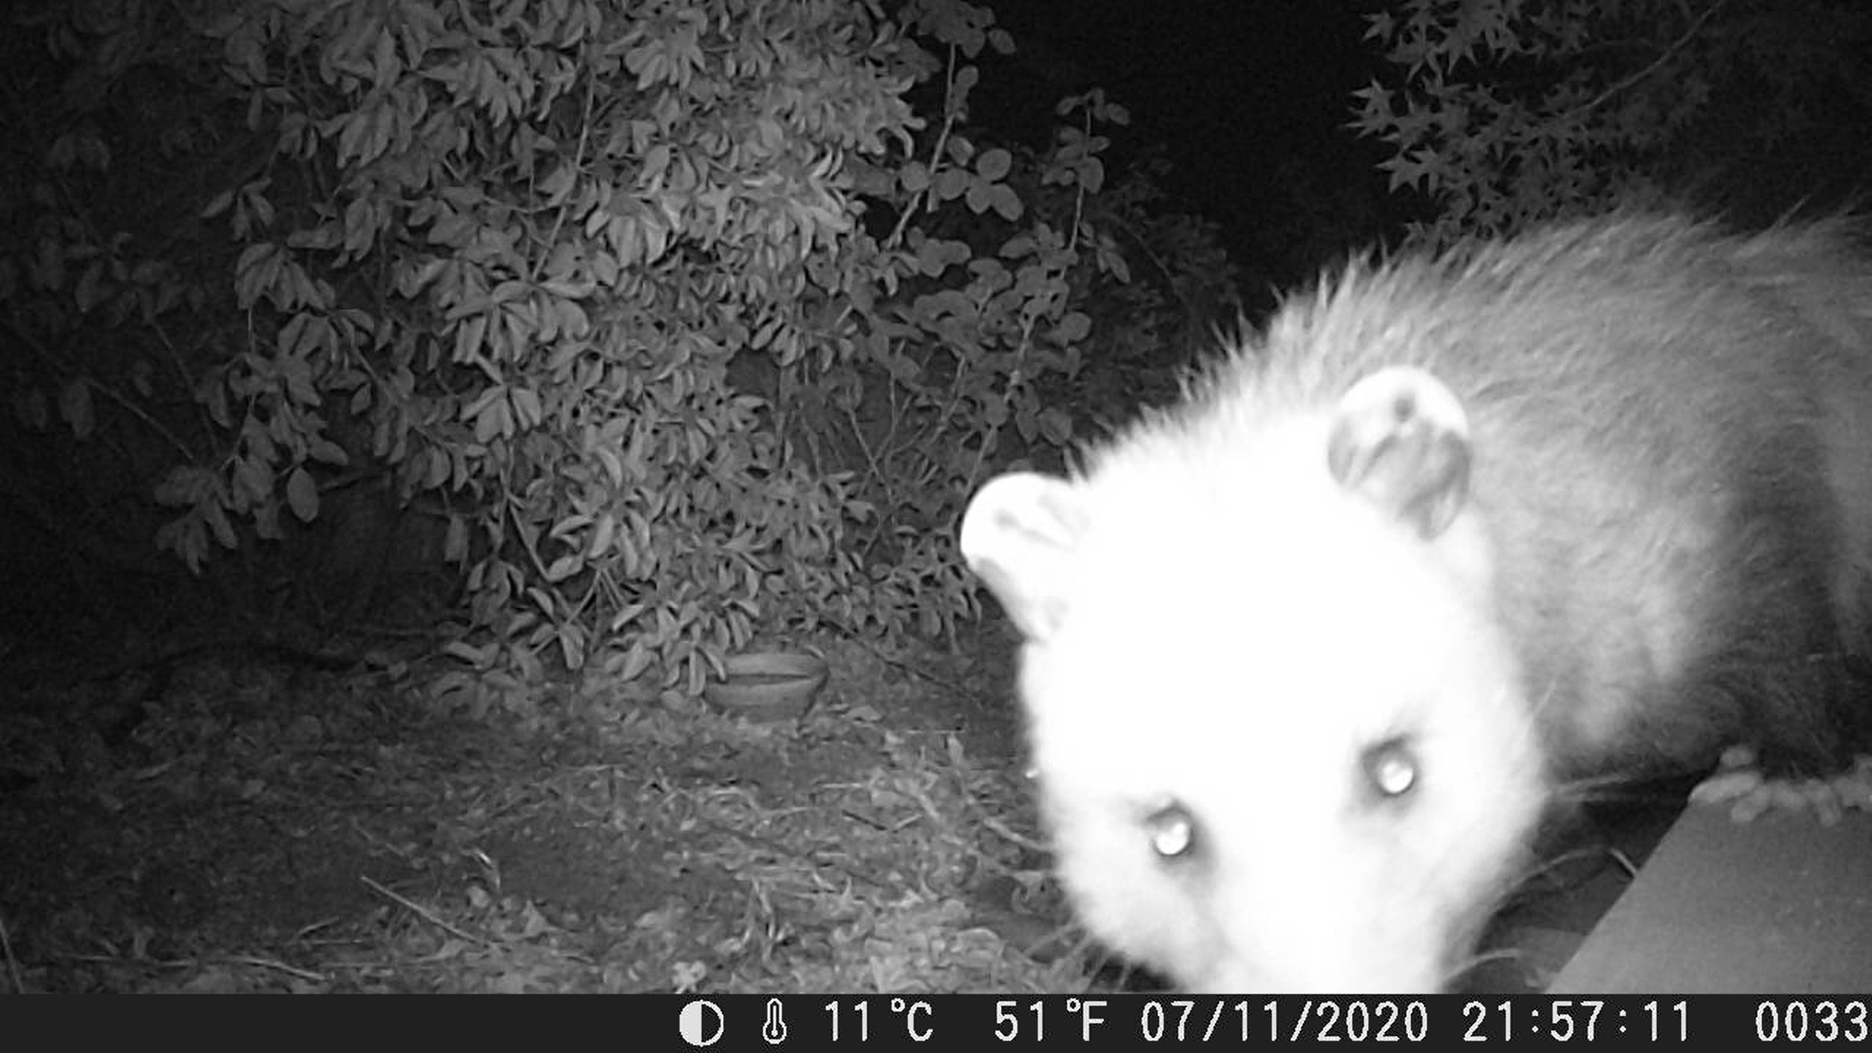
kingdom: Animalia
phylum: Chordata
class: Mammalia
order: Didelphimorphia
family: Didelphidae
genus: Didelphis
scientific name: Didelphis virginiana
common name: Virginia opossum
